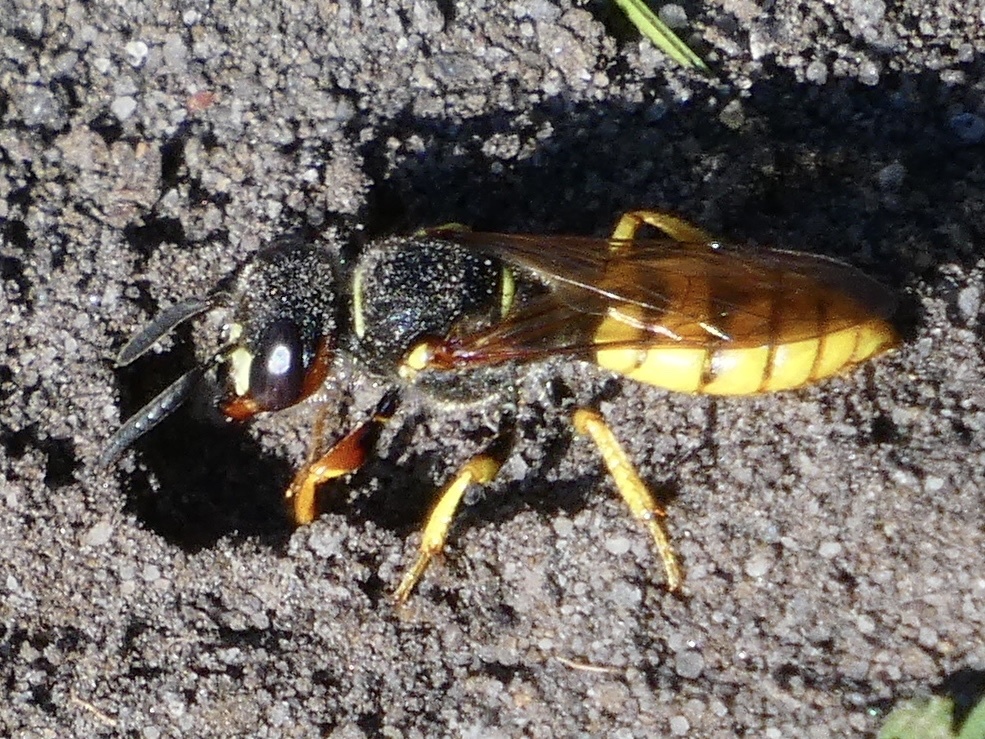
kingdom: Animalia
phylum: Arthropoda
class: Insecta
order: Hymenoptera
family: Crabronidae
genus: Philanthus
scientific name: Philanthus triangulum
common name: Bee wolf
